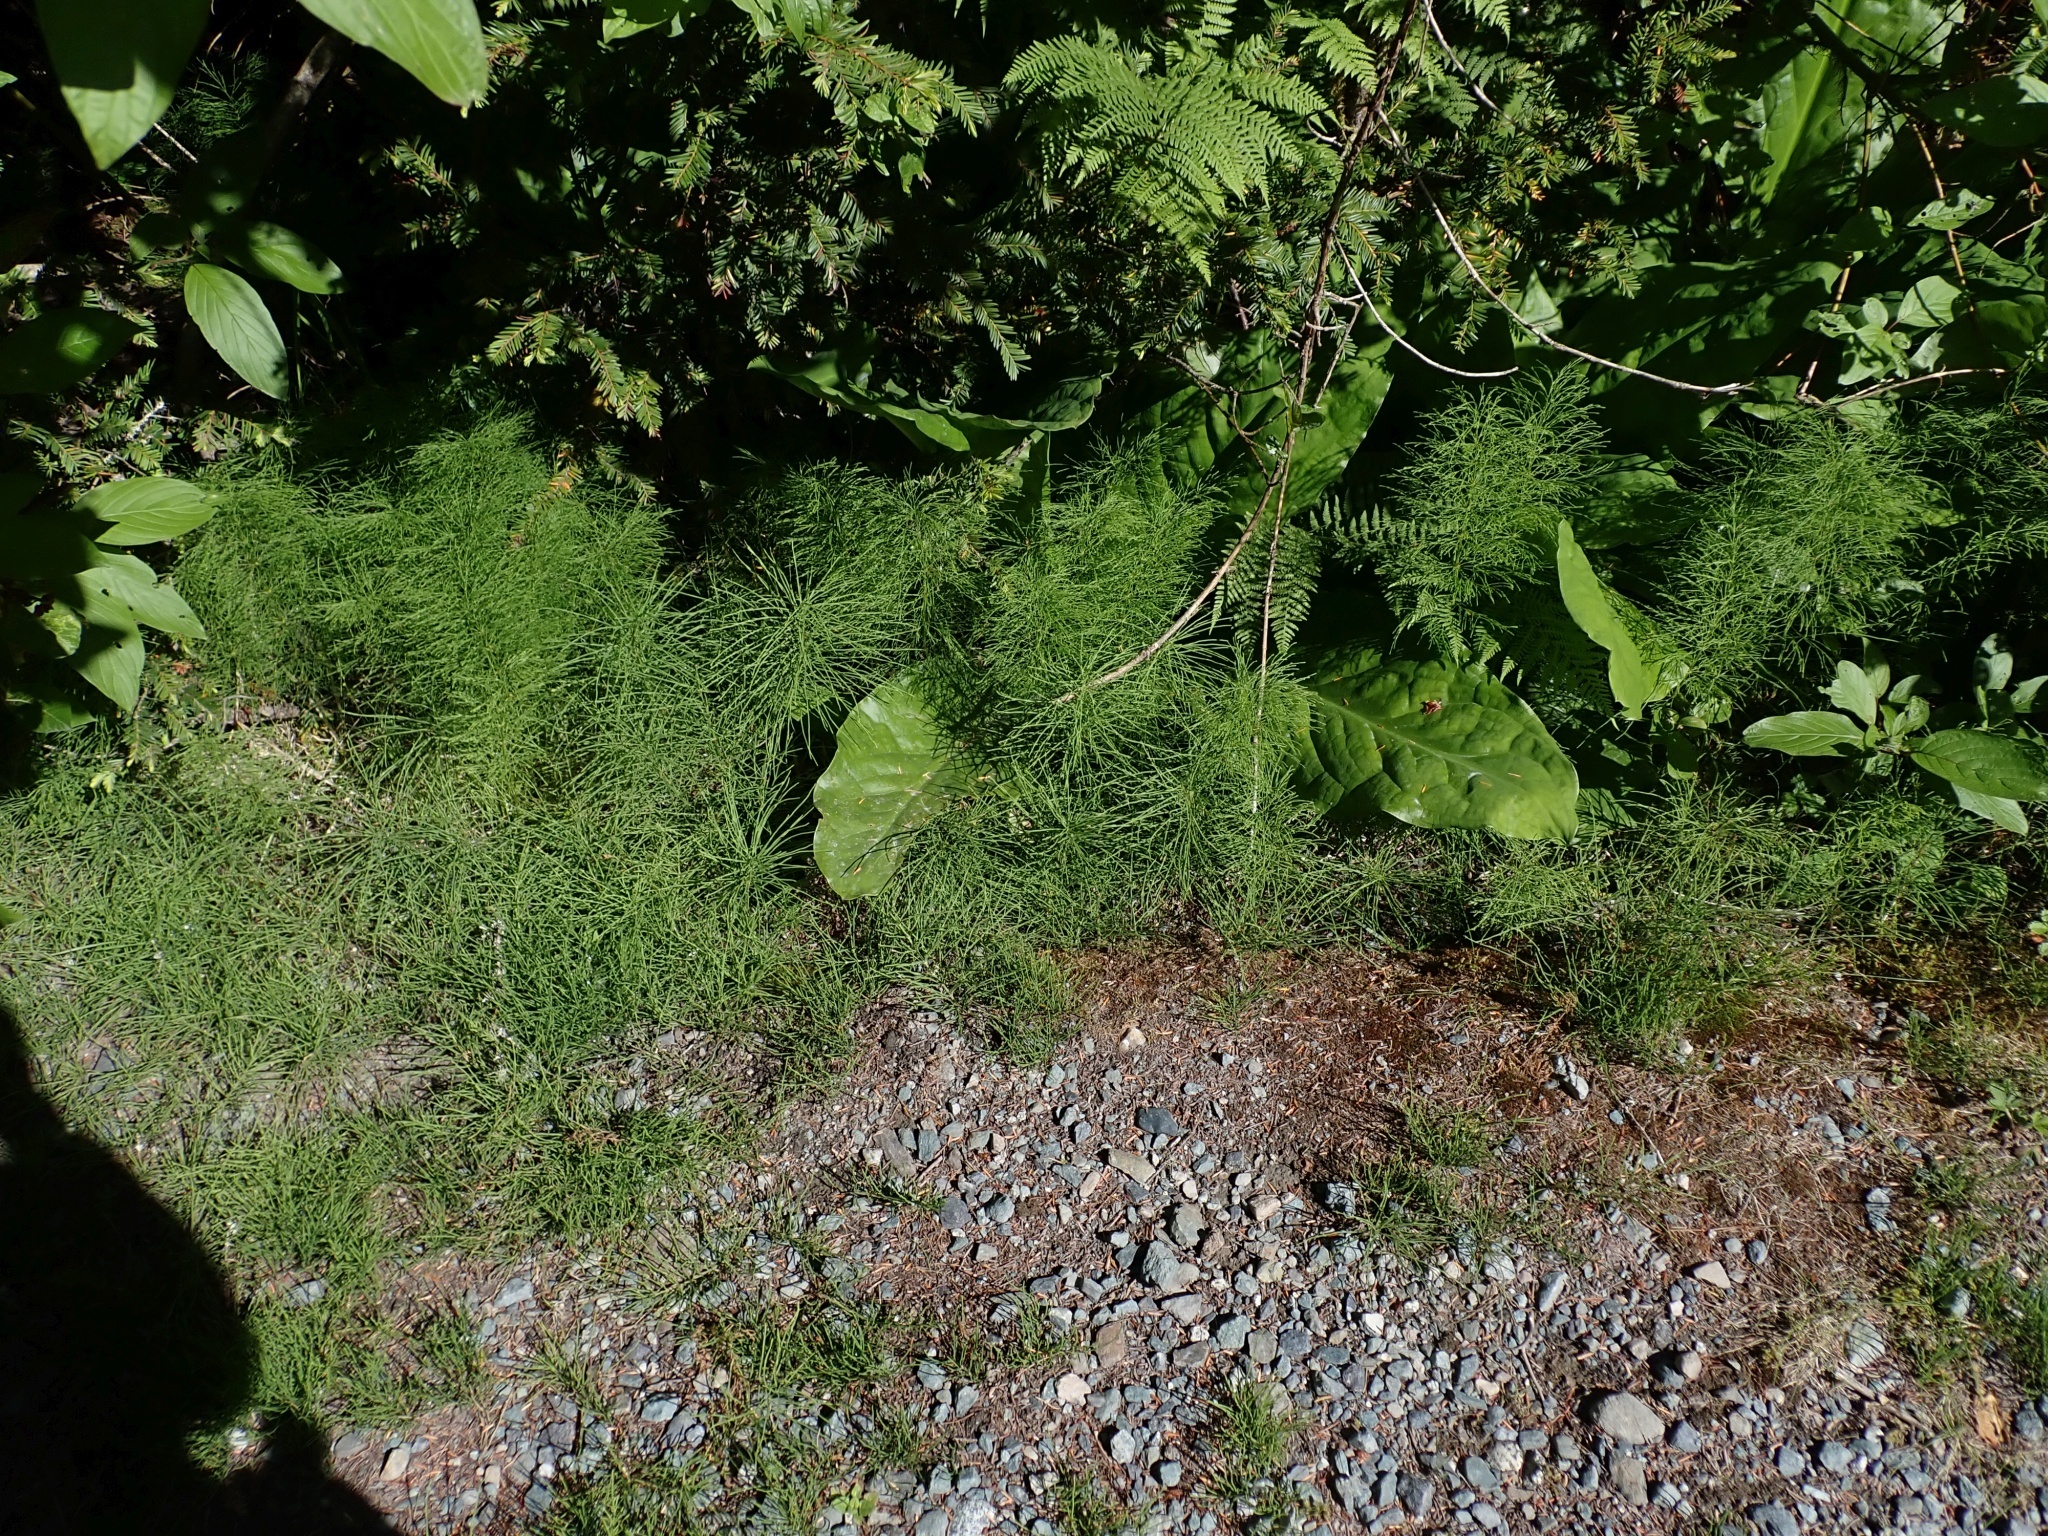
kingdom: Plantae
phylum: Tracheophyta
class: Polypodiopsida
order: Equisetales
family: Equisetaceae
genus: Equisetum
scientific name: Equisetum sylvaticum
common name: Wood horsetail
